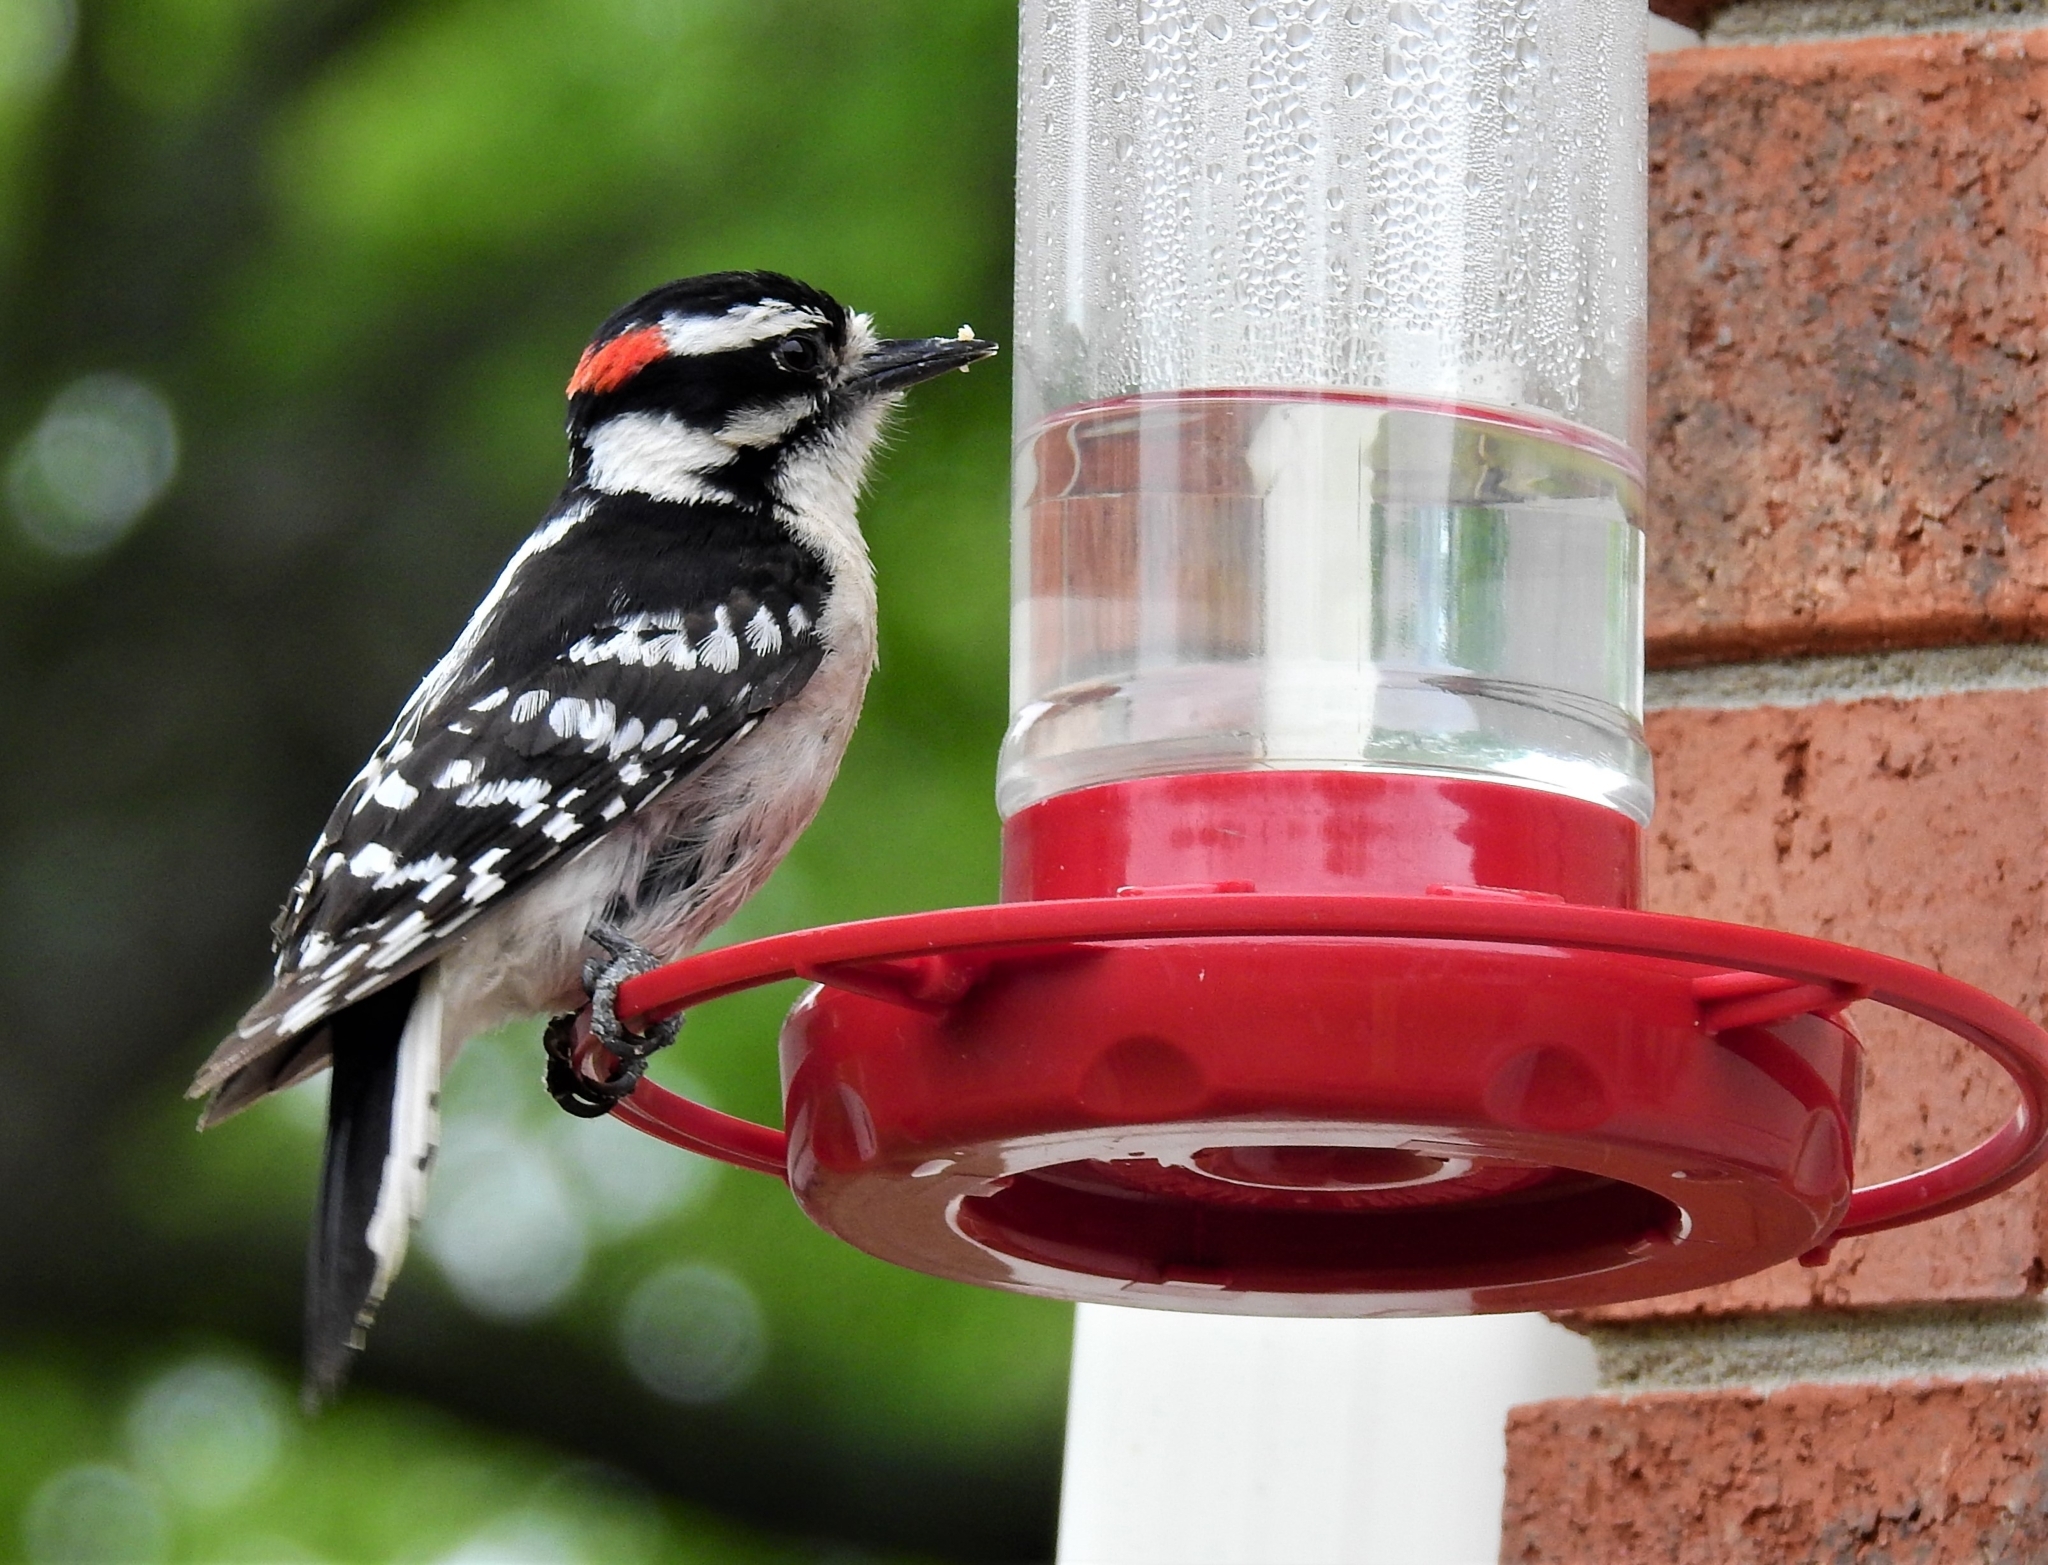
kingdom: Animalia
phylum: Chordata
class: Aves
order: Piciformes
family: Picidae
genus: Dryobates
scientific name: Dryobates pubescens
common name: Downy woodpecker
